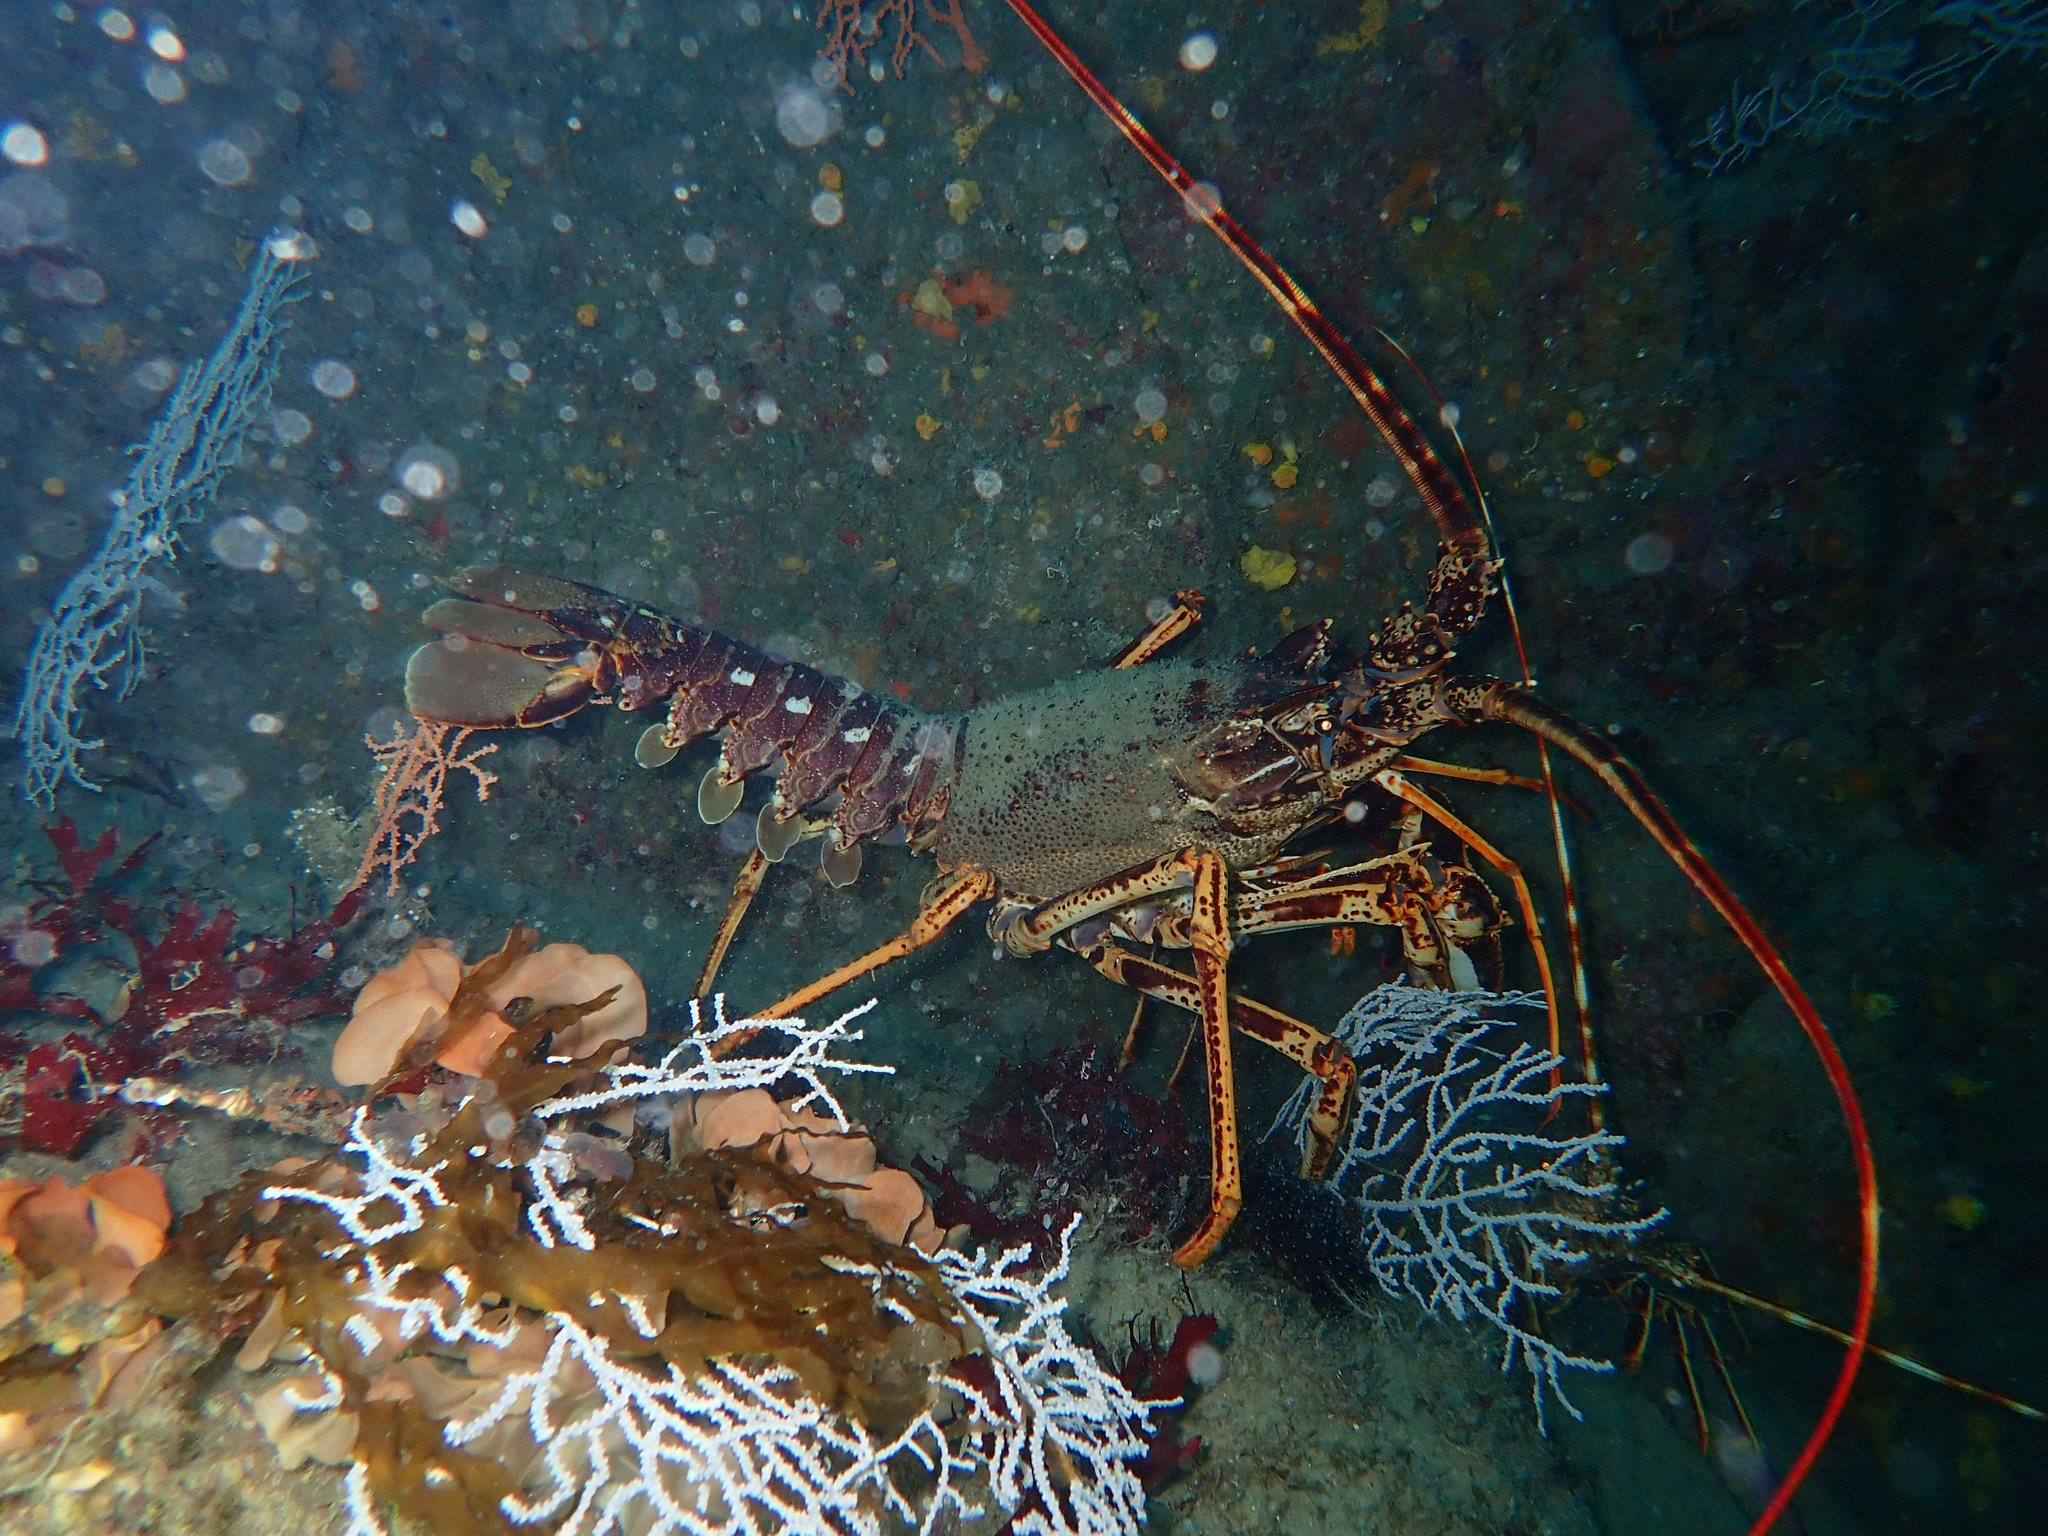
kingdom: Animalia
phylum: Arthropoda
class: Malacostraca
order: Decapoda
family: Palinuridae
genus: Palinurus
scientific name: Palinurus elephas
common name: European spiny lobster
